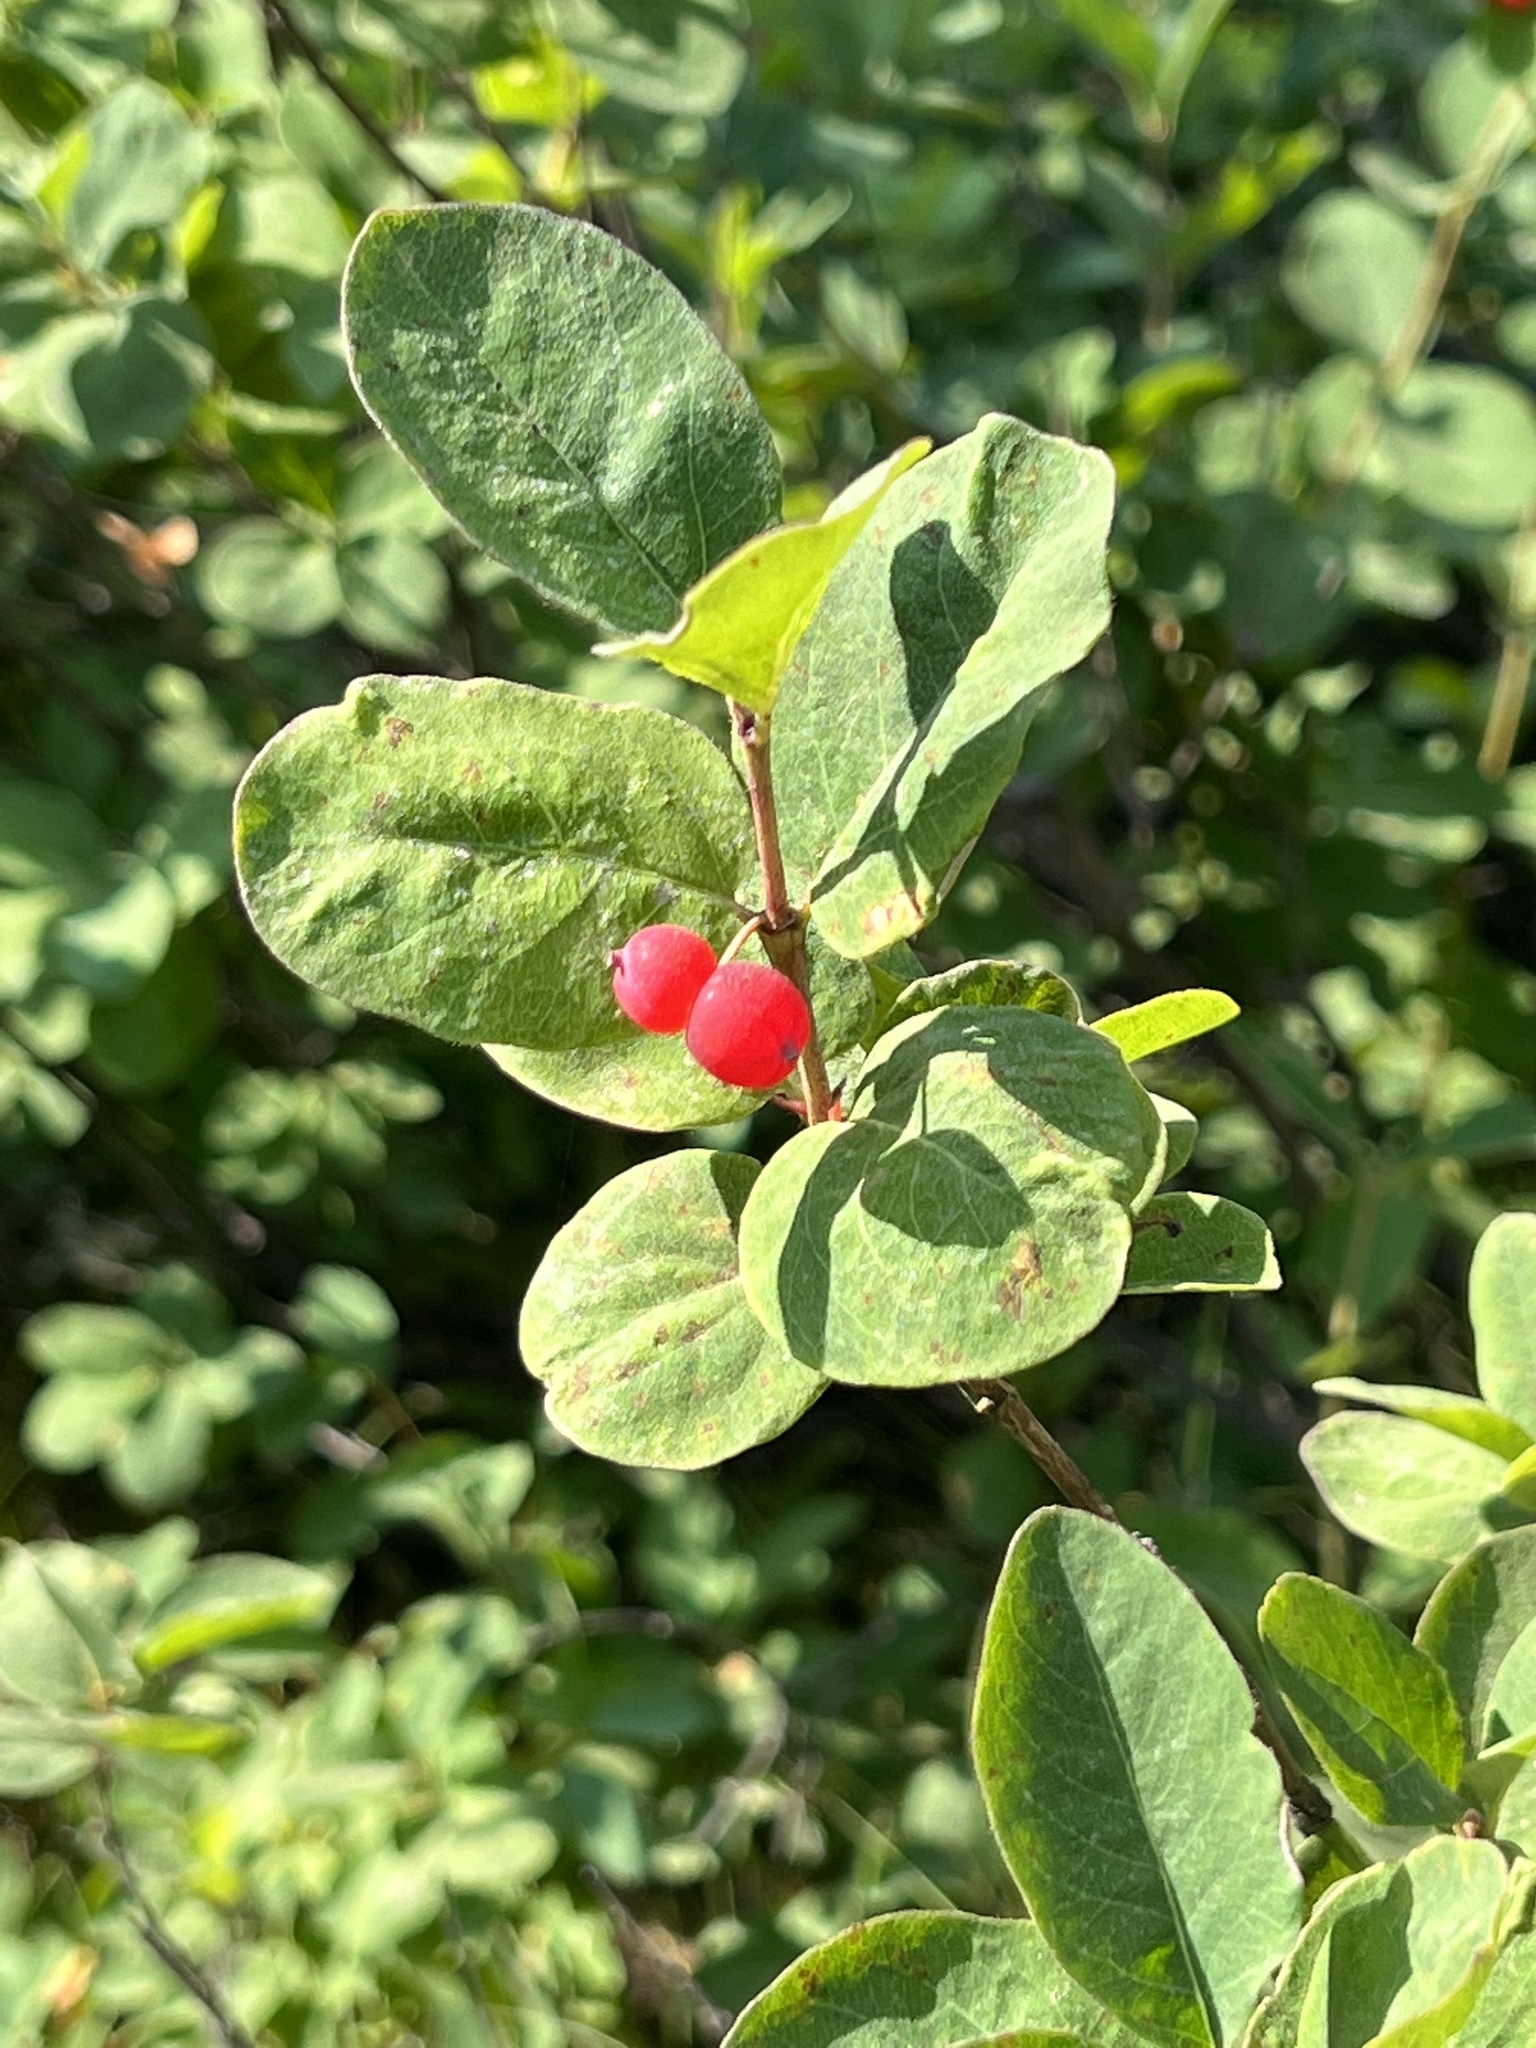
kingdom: Plantae
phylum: Tracheophyta
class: Magnoliopsida
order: Dipsacales
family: Caprifoliaceae
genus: Lonicera
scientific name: Lonicera utahensis
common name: Utah honeysuckle
